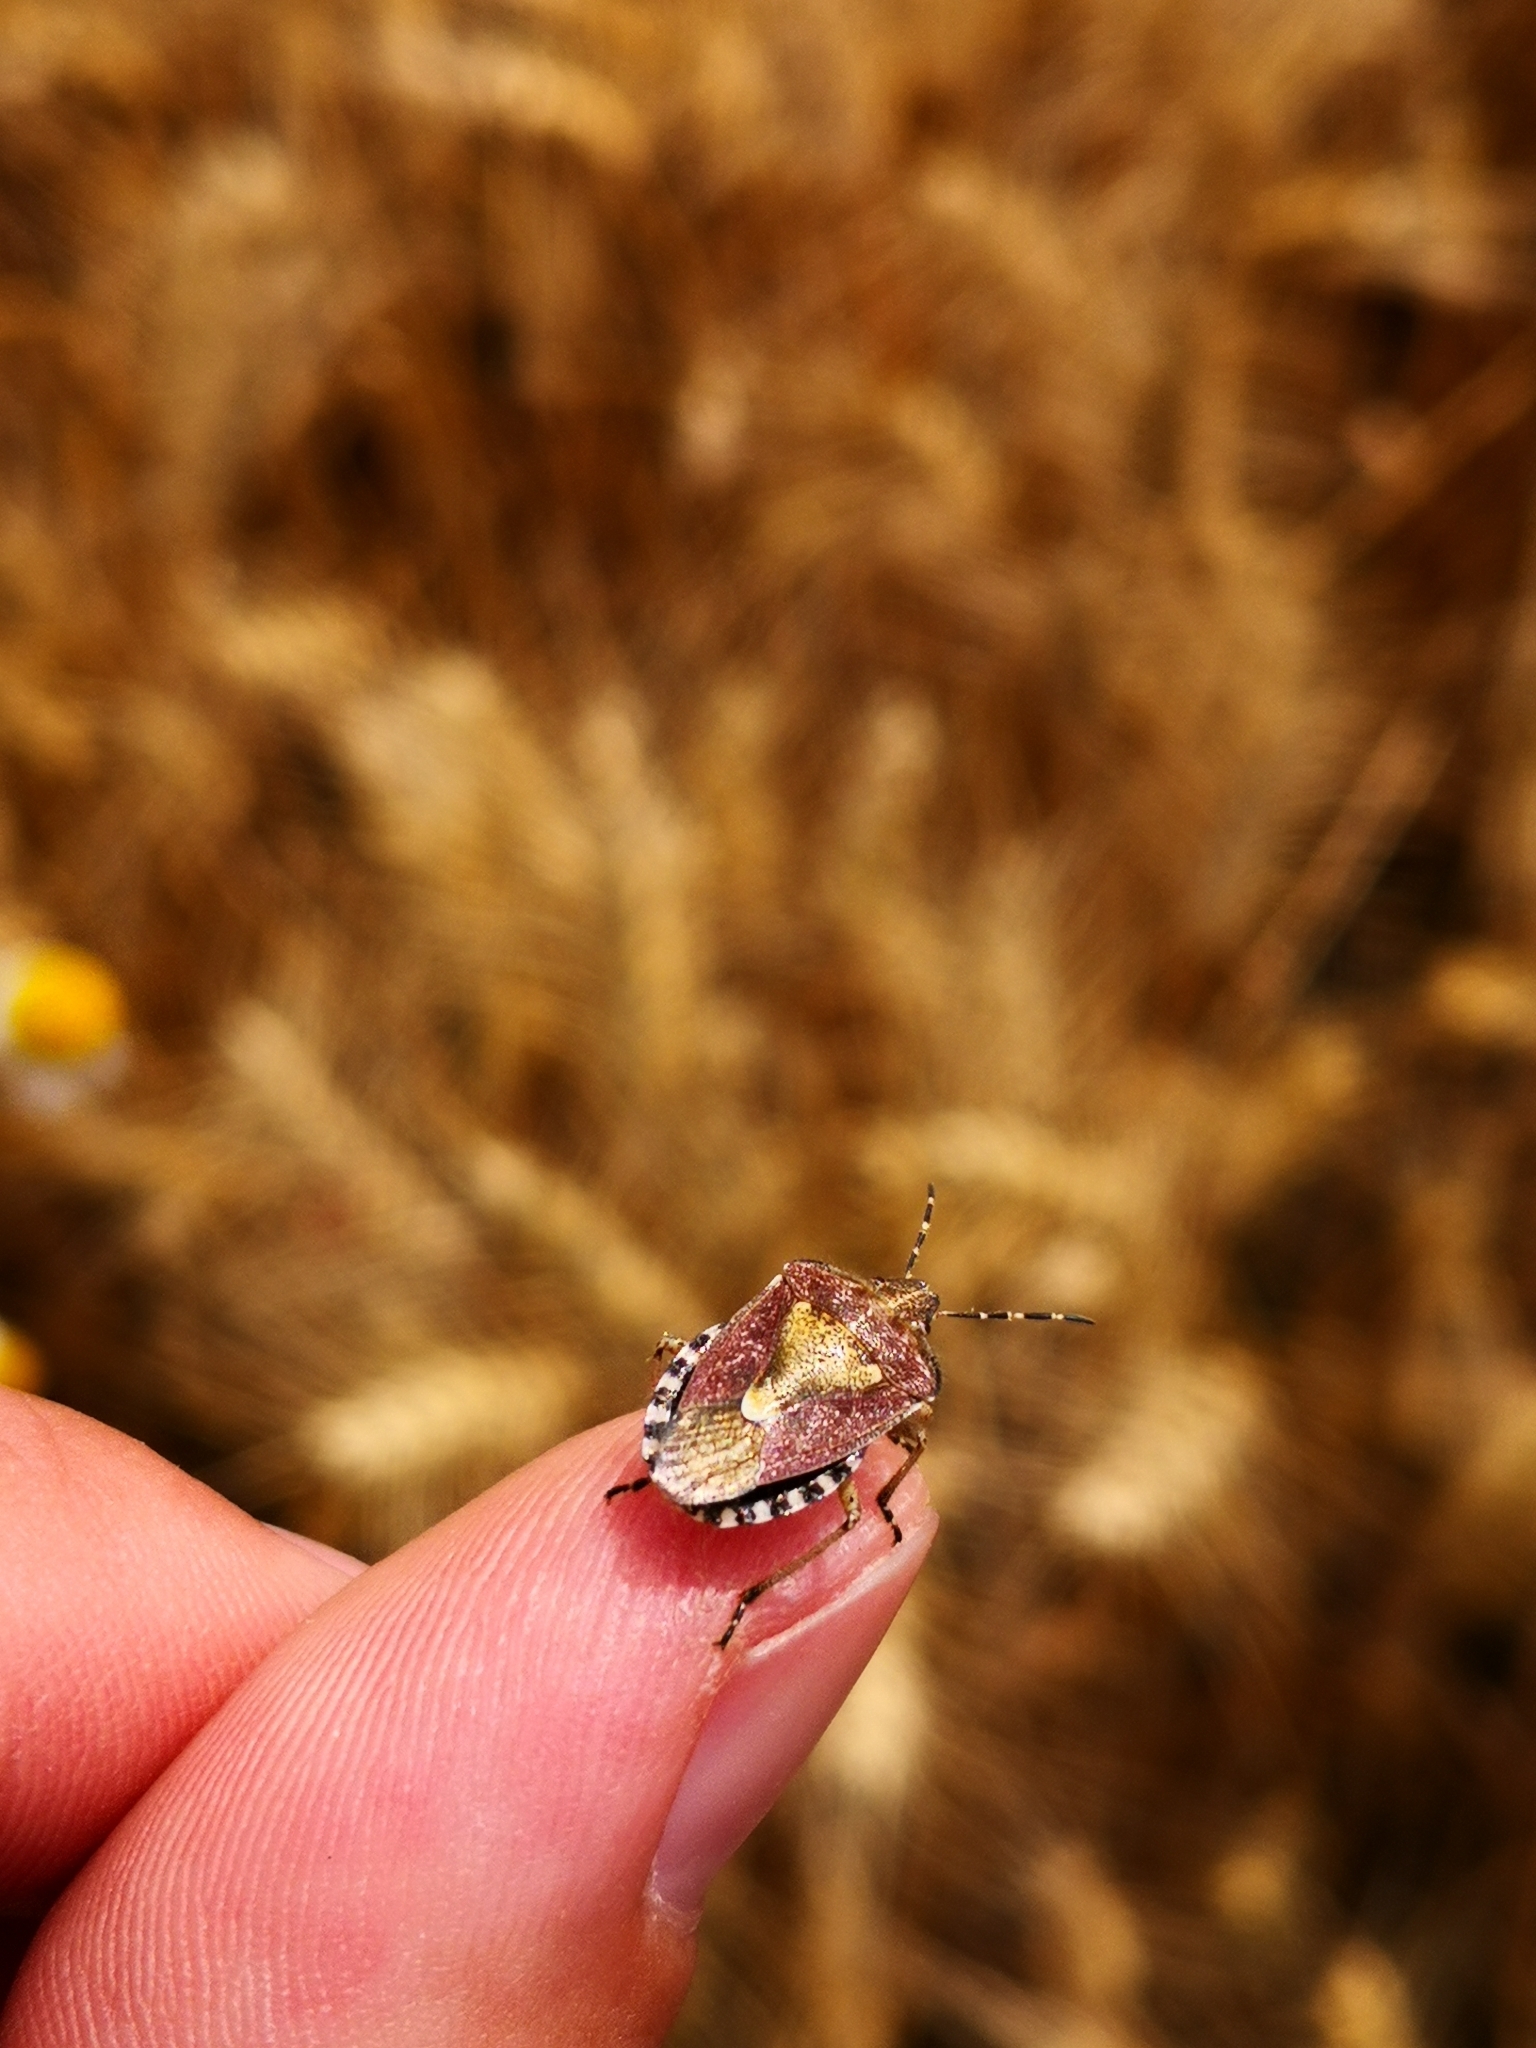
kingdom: Animalia
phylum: Arthropoda
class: Insecta
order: Hemiptera
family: Pentatomidae
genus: Dolycoris
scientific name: Dolycoris baccarum
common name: Sloe bug
